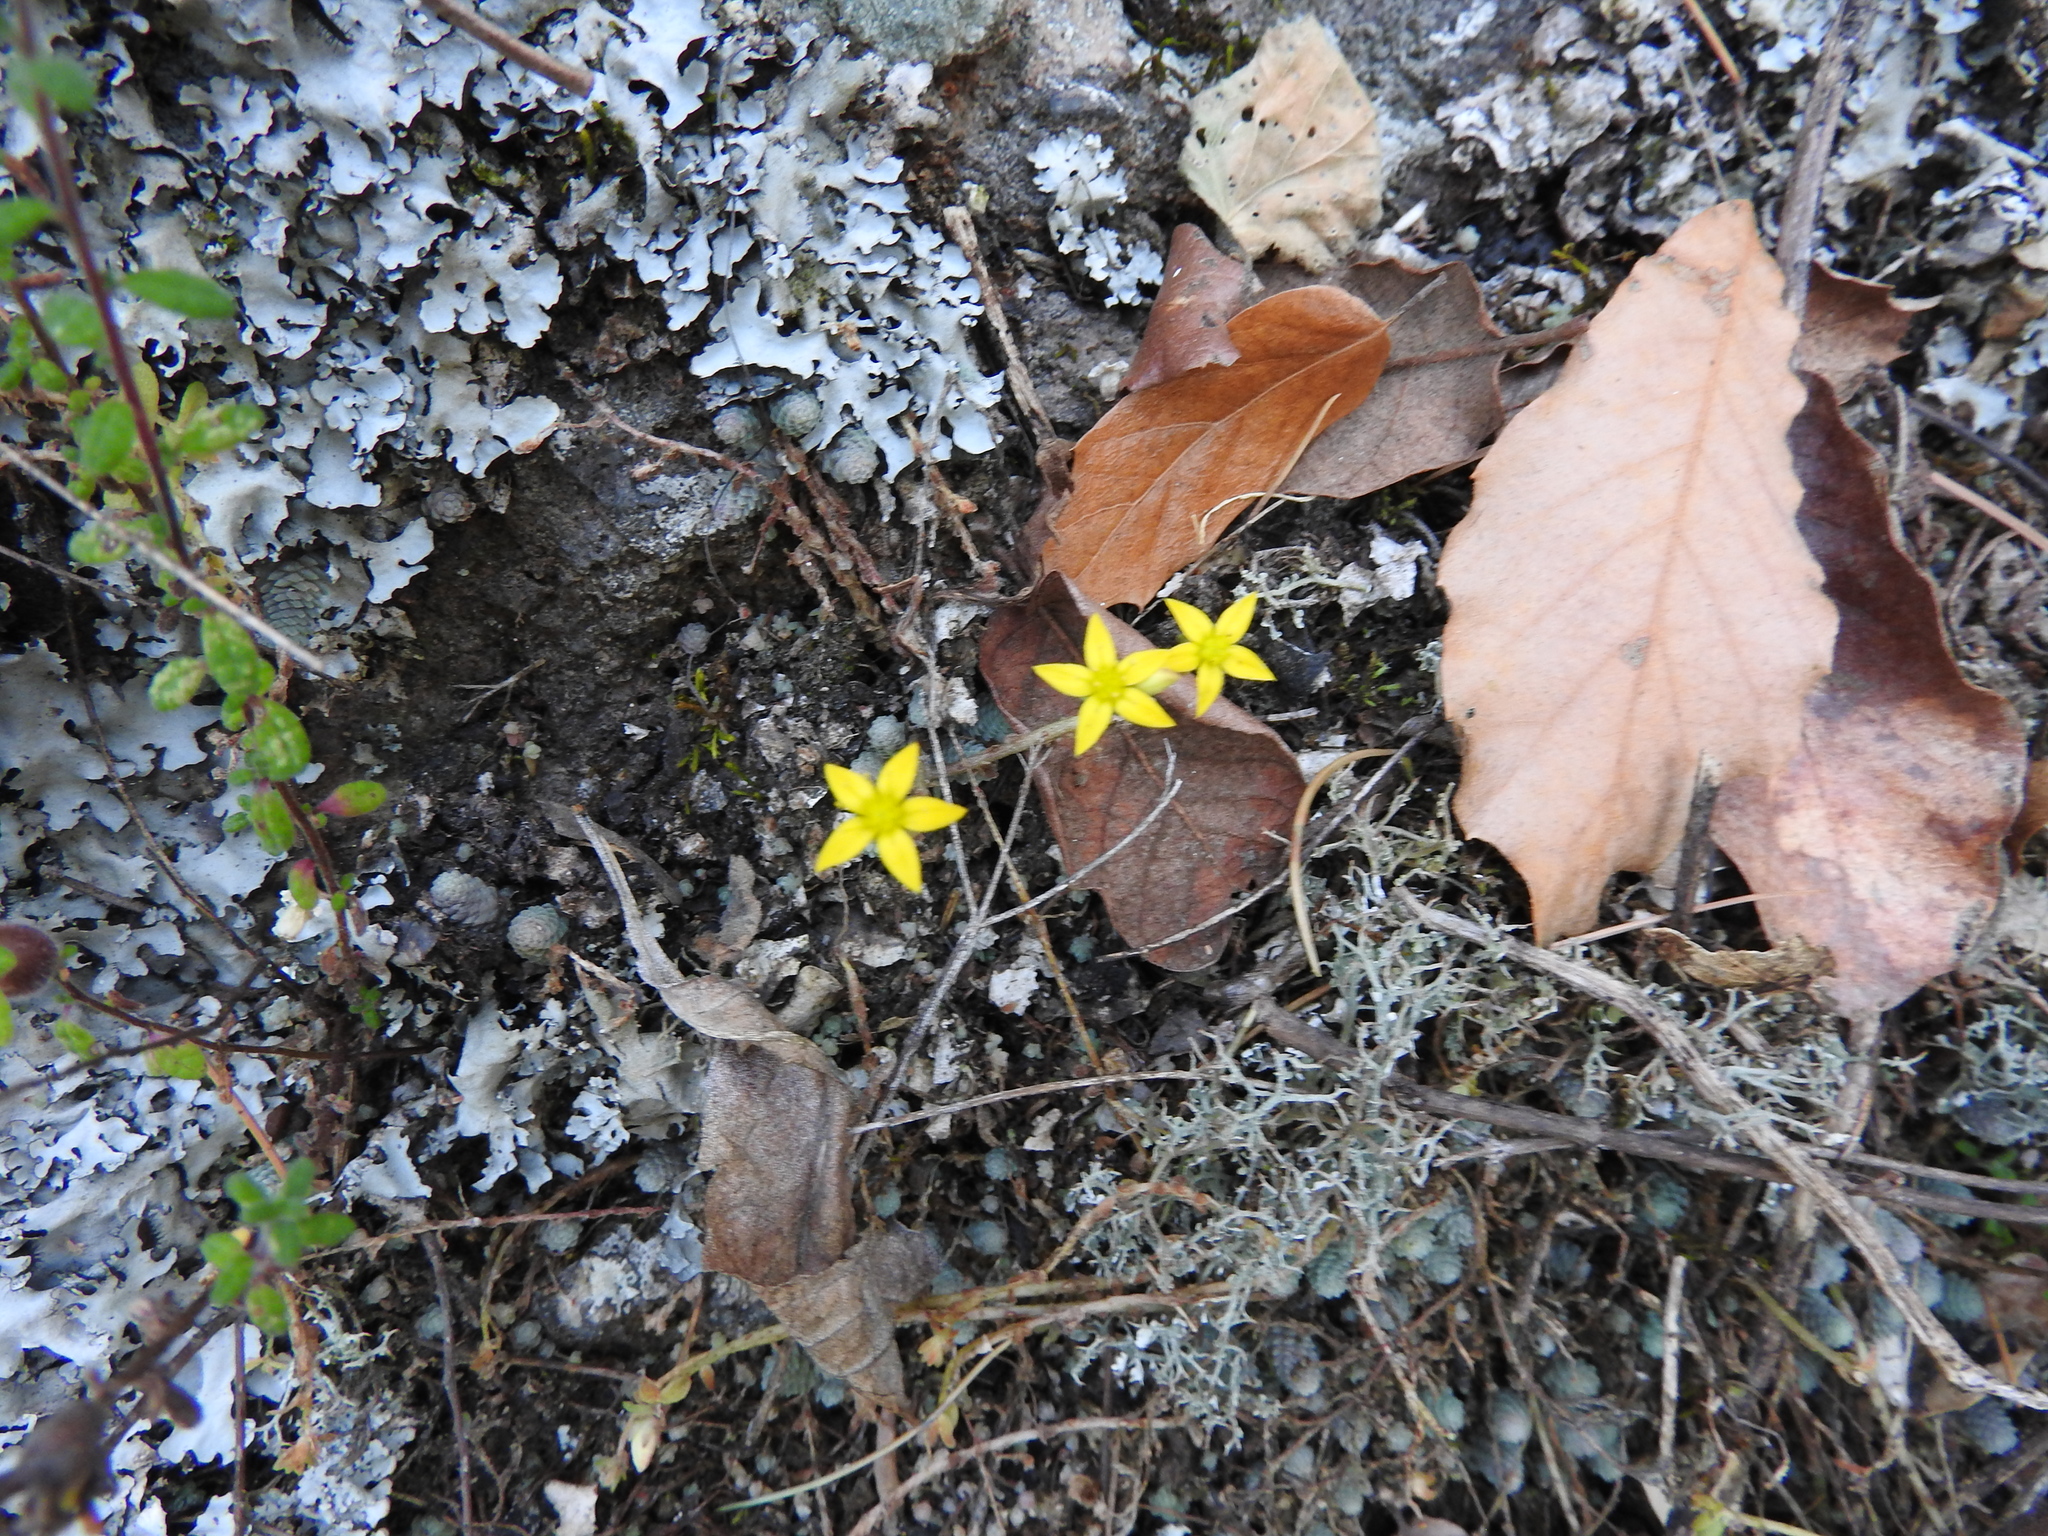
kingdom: Plantae
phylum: Tracheophyta
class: Magnoliopsida
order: Saxifragales
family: Crassulaceae
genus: Sedum
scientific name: Sedum greggii
